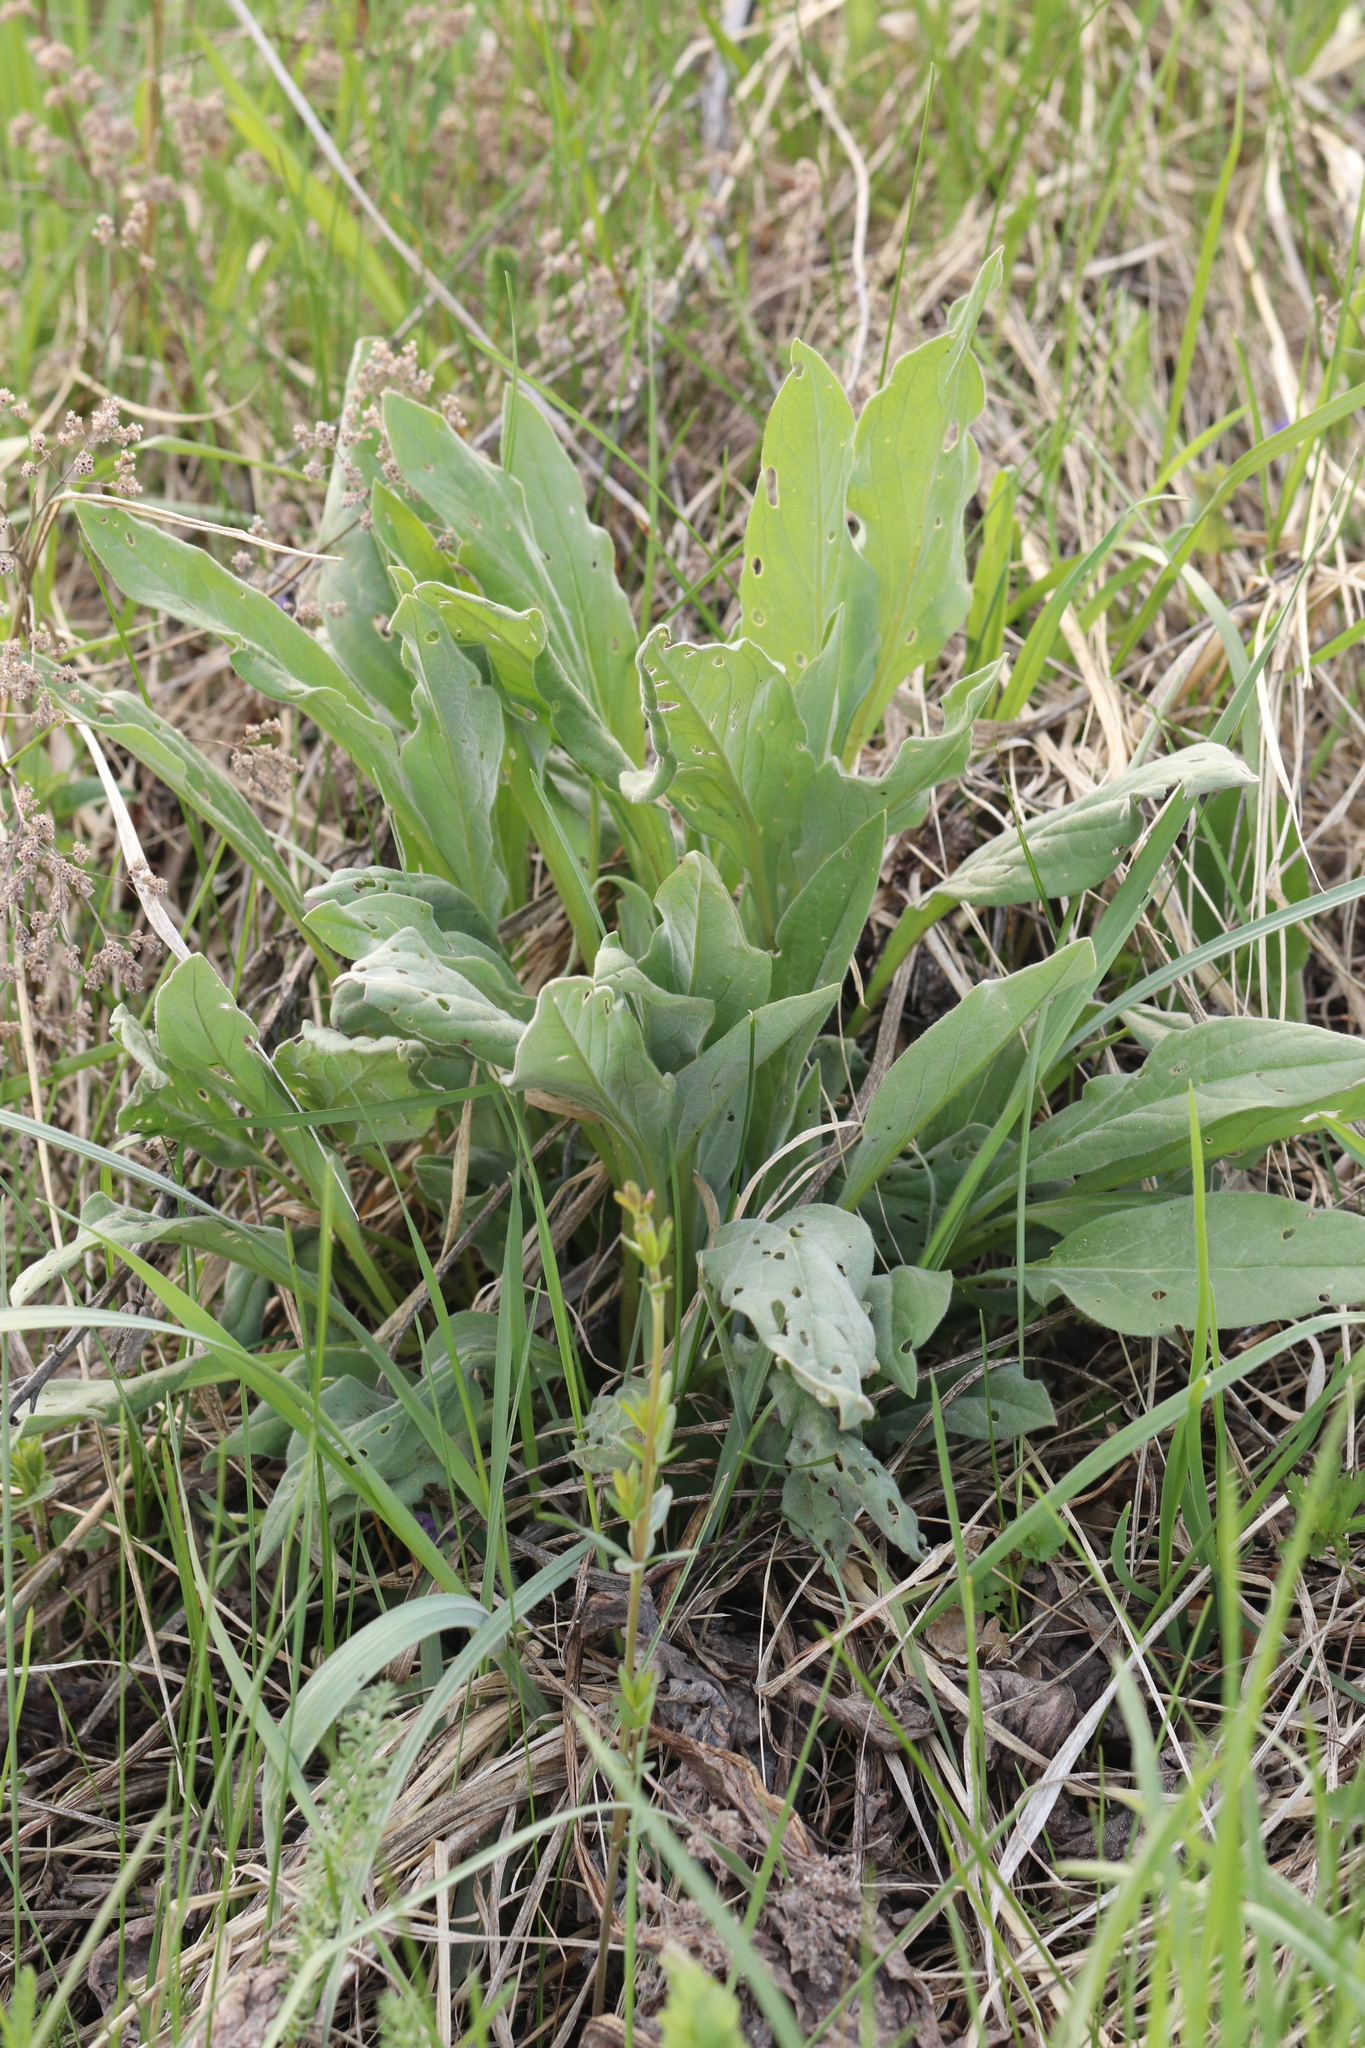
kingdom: Plantae
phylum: Tracheophyta
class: Magnoliopsida
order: Boraginales
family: Boraginaceae
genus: Cynoglossum
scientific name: Cynoglossum officinale
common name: Hound's-tongue
